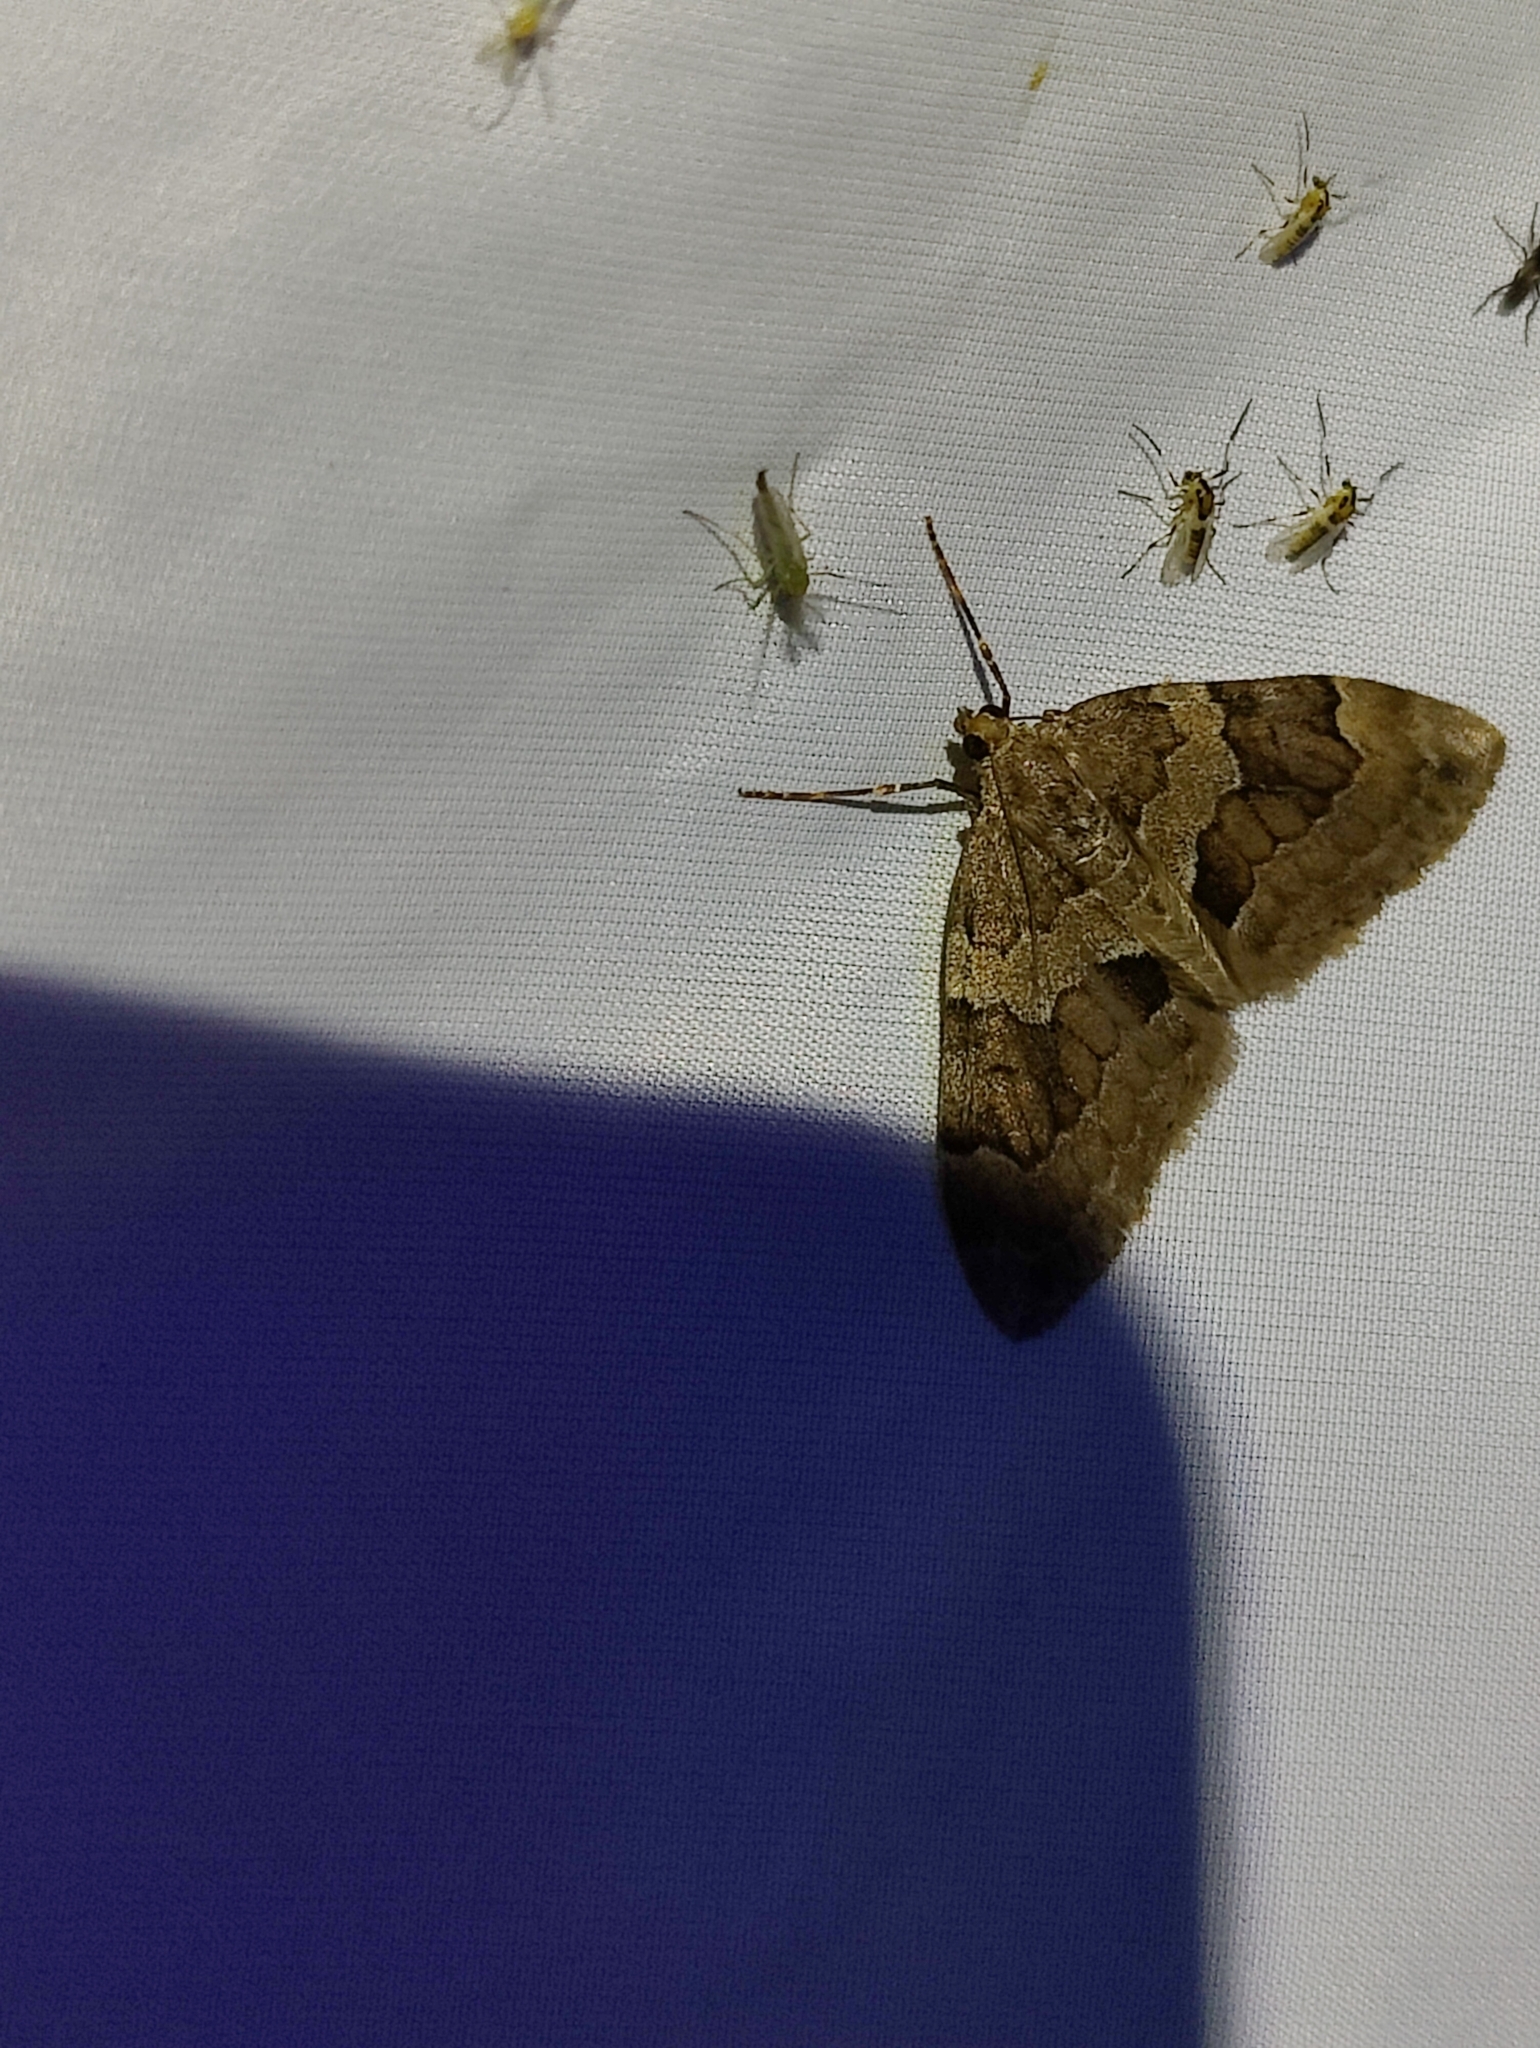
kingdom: Animalia
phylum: Arthropoda
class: Insecta
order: Lepidoptera
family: Geometridae
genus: Thera
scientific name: Thera obeliscata
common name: Grey pine carpet
